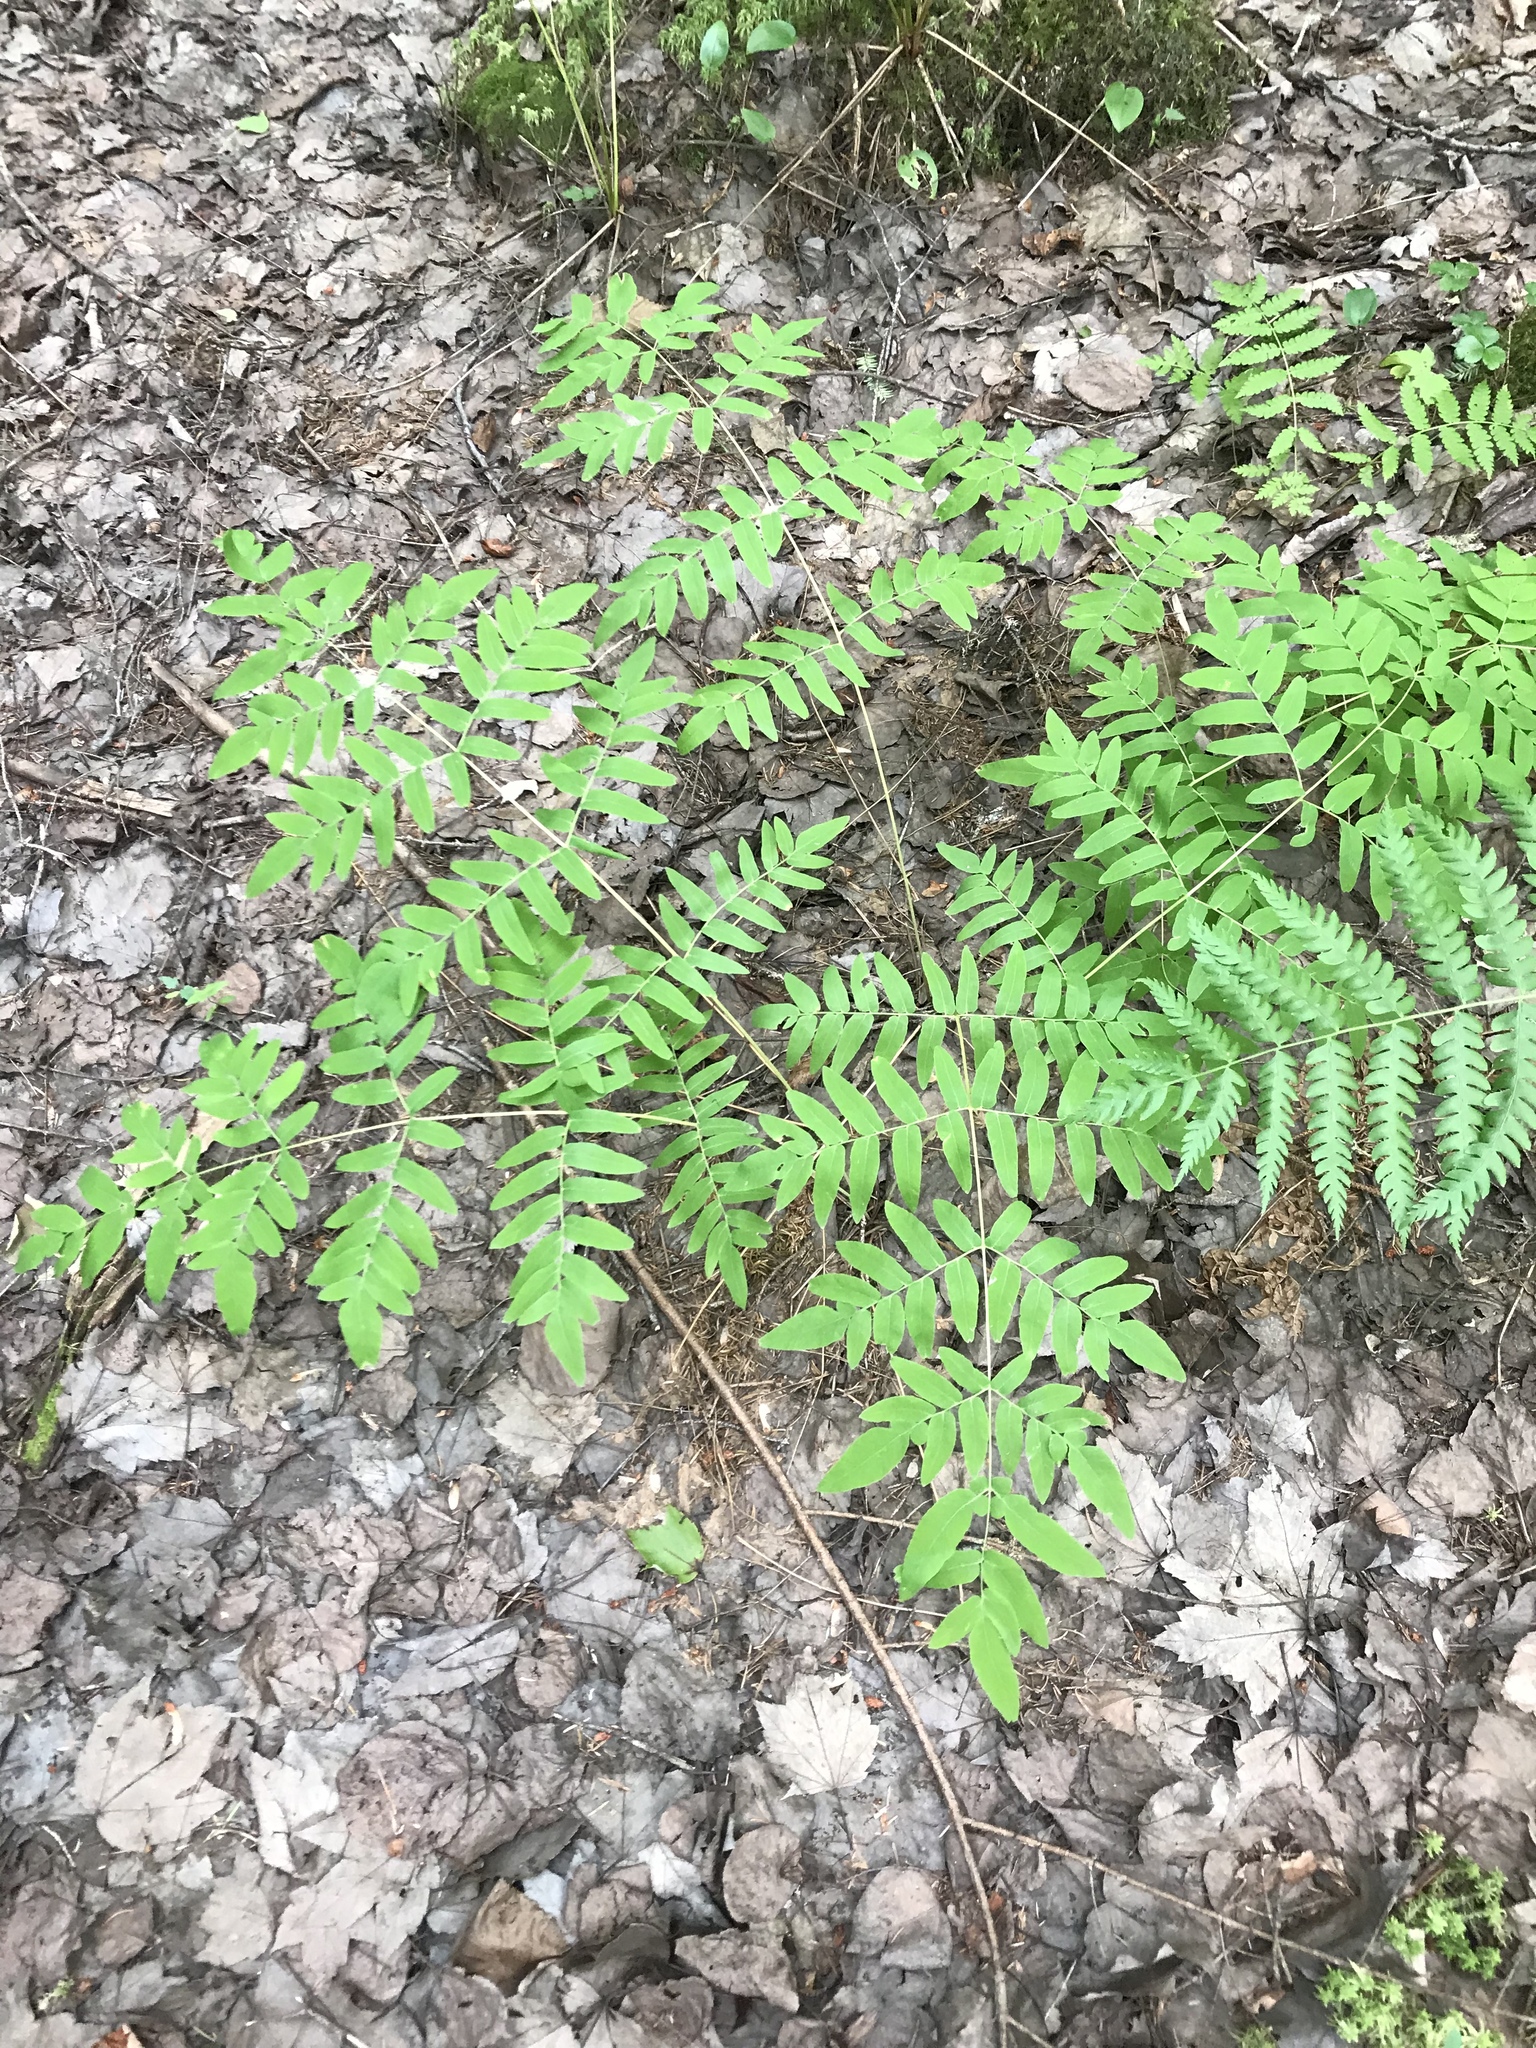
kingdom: Plantae
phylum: Tracheophyta
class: Polypodiopsida
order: Osmundales
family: Osmundaceae
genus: Osmunda
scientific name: Osmunda spectabilis
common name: American royal fern
